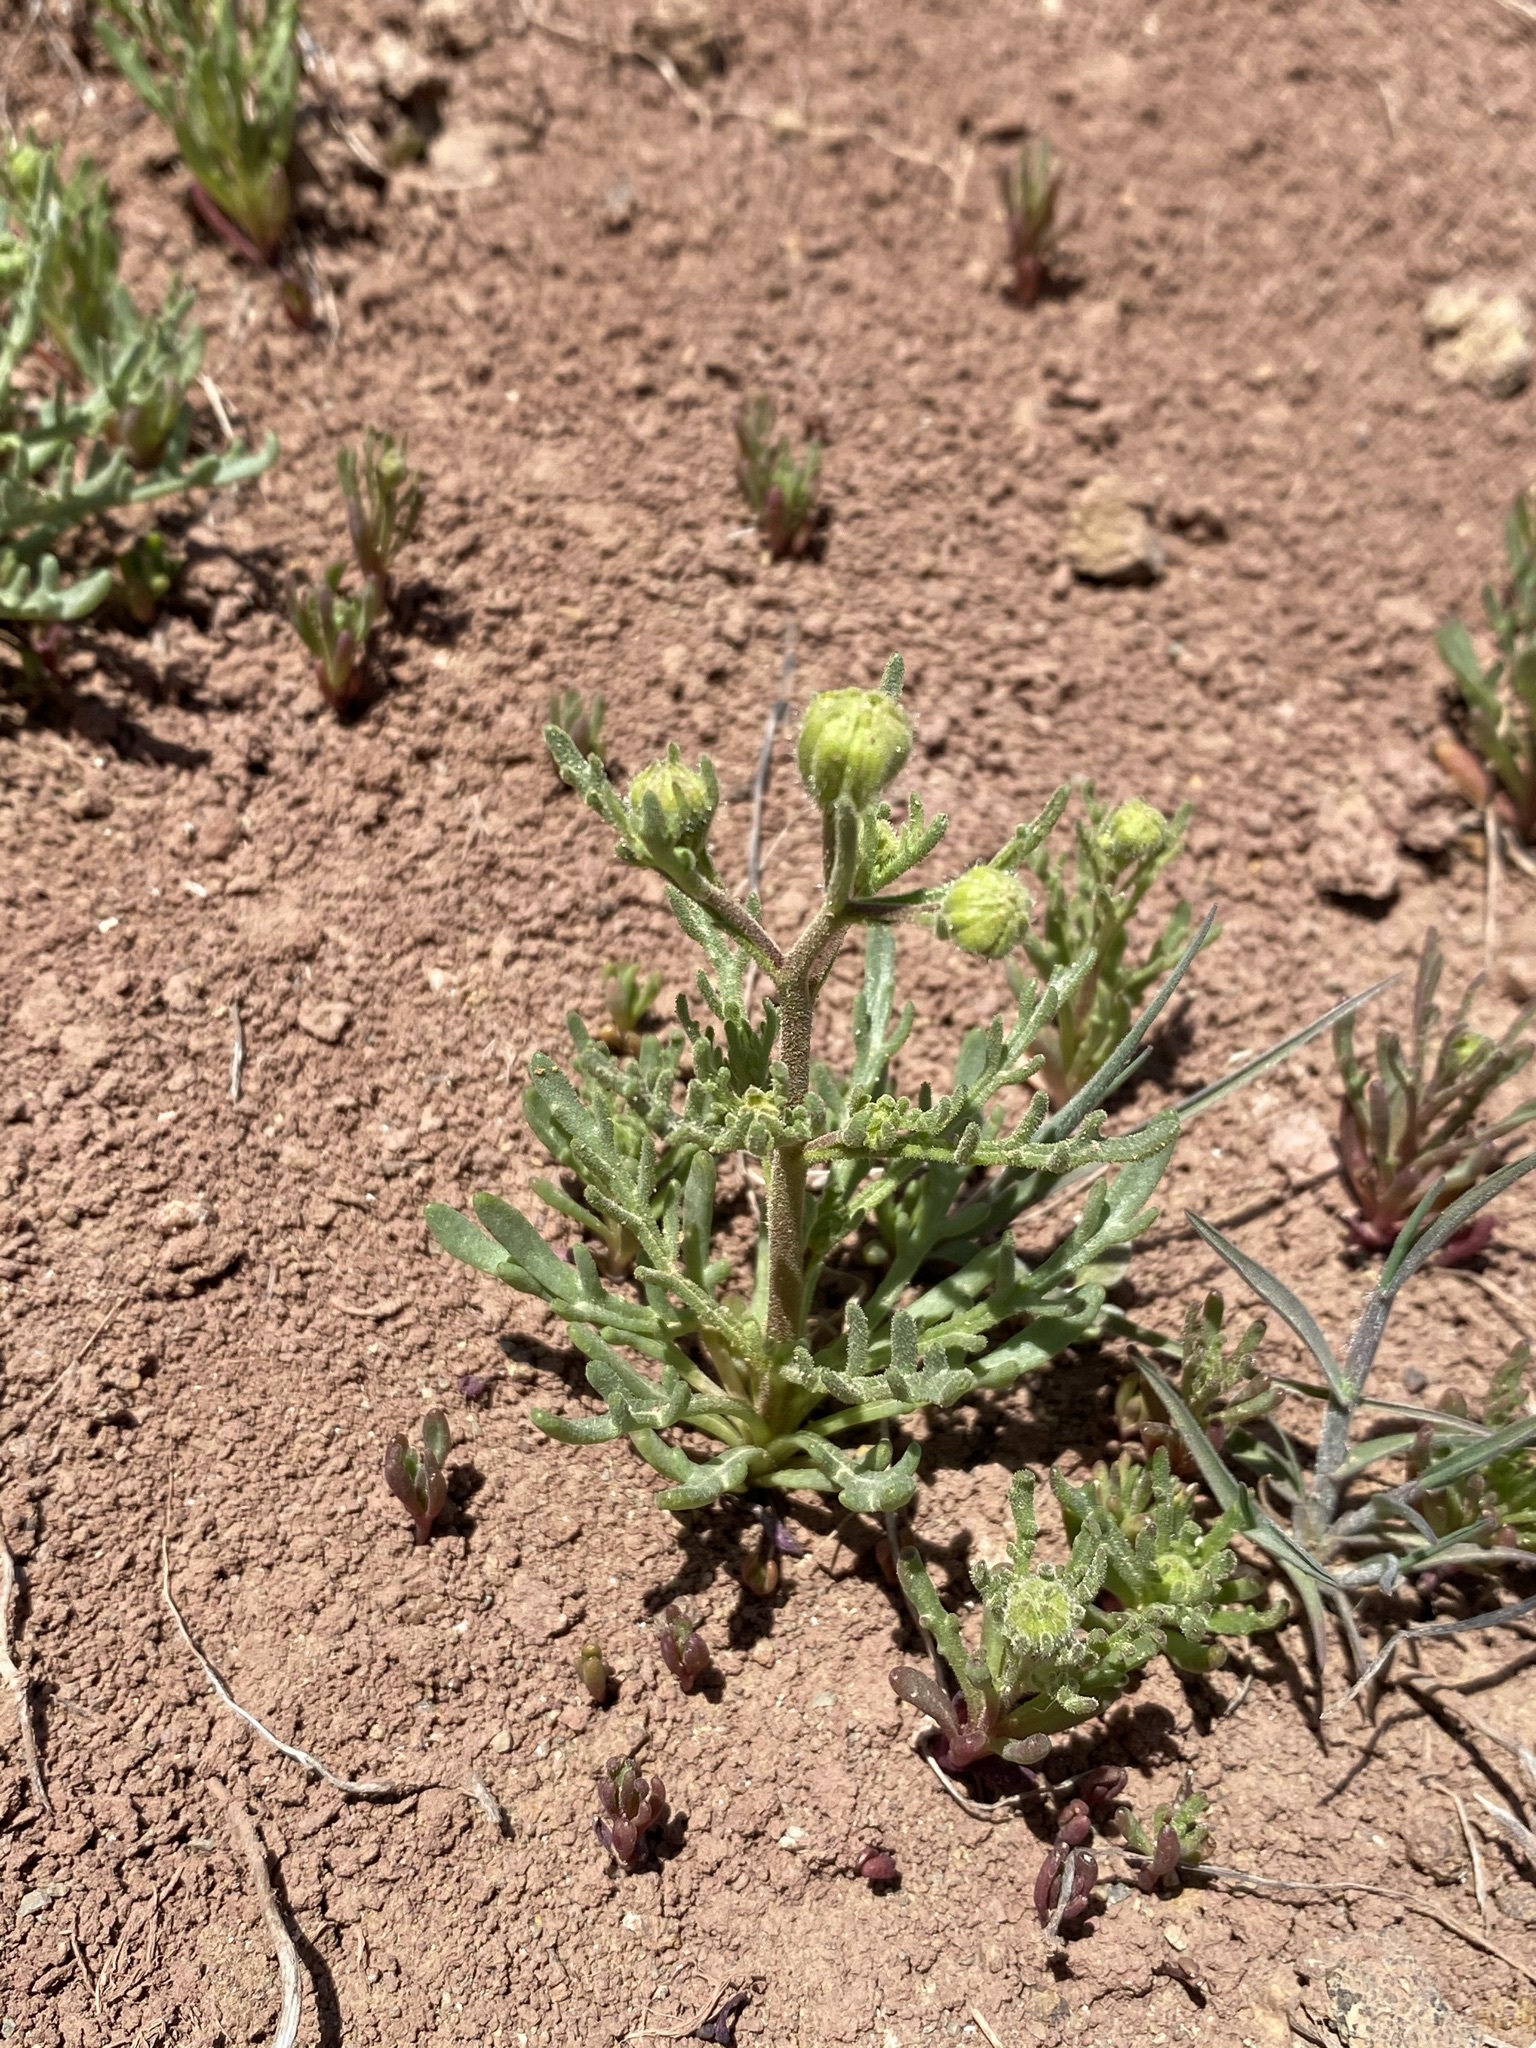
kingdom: Plantae
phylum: Tracheophyta
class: Magnoliopsida
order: Asterales
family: Asteraceae
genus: Chaenactis
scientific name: Chaenactis nevii
